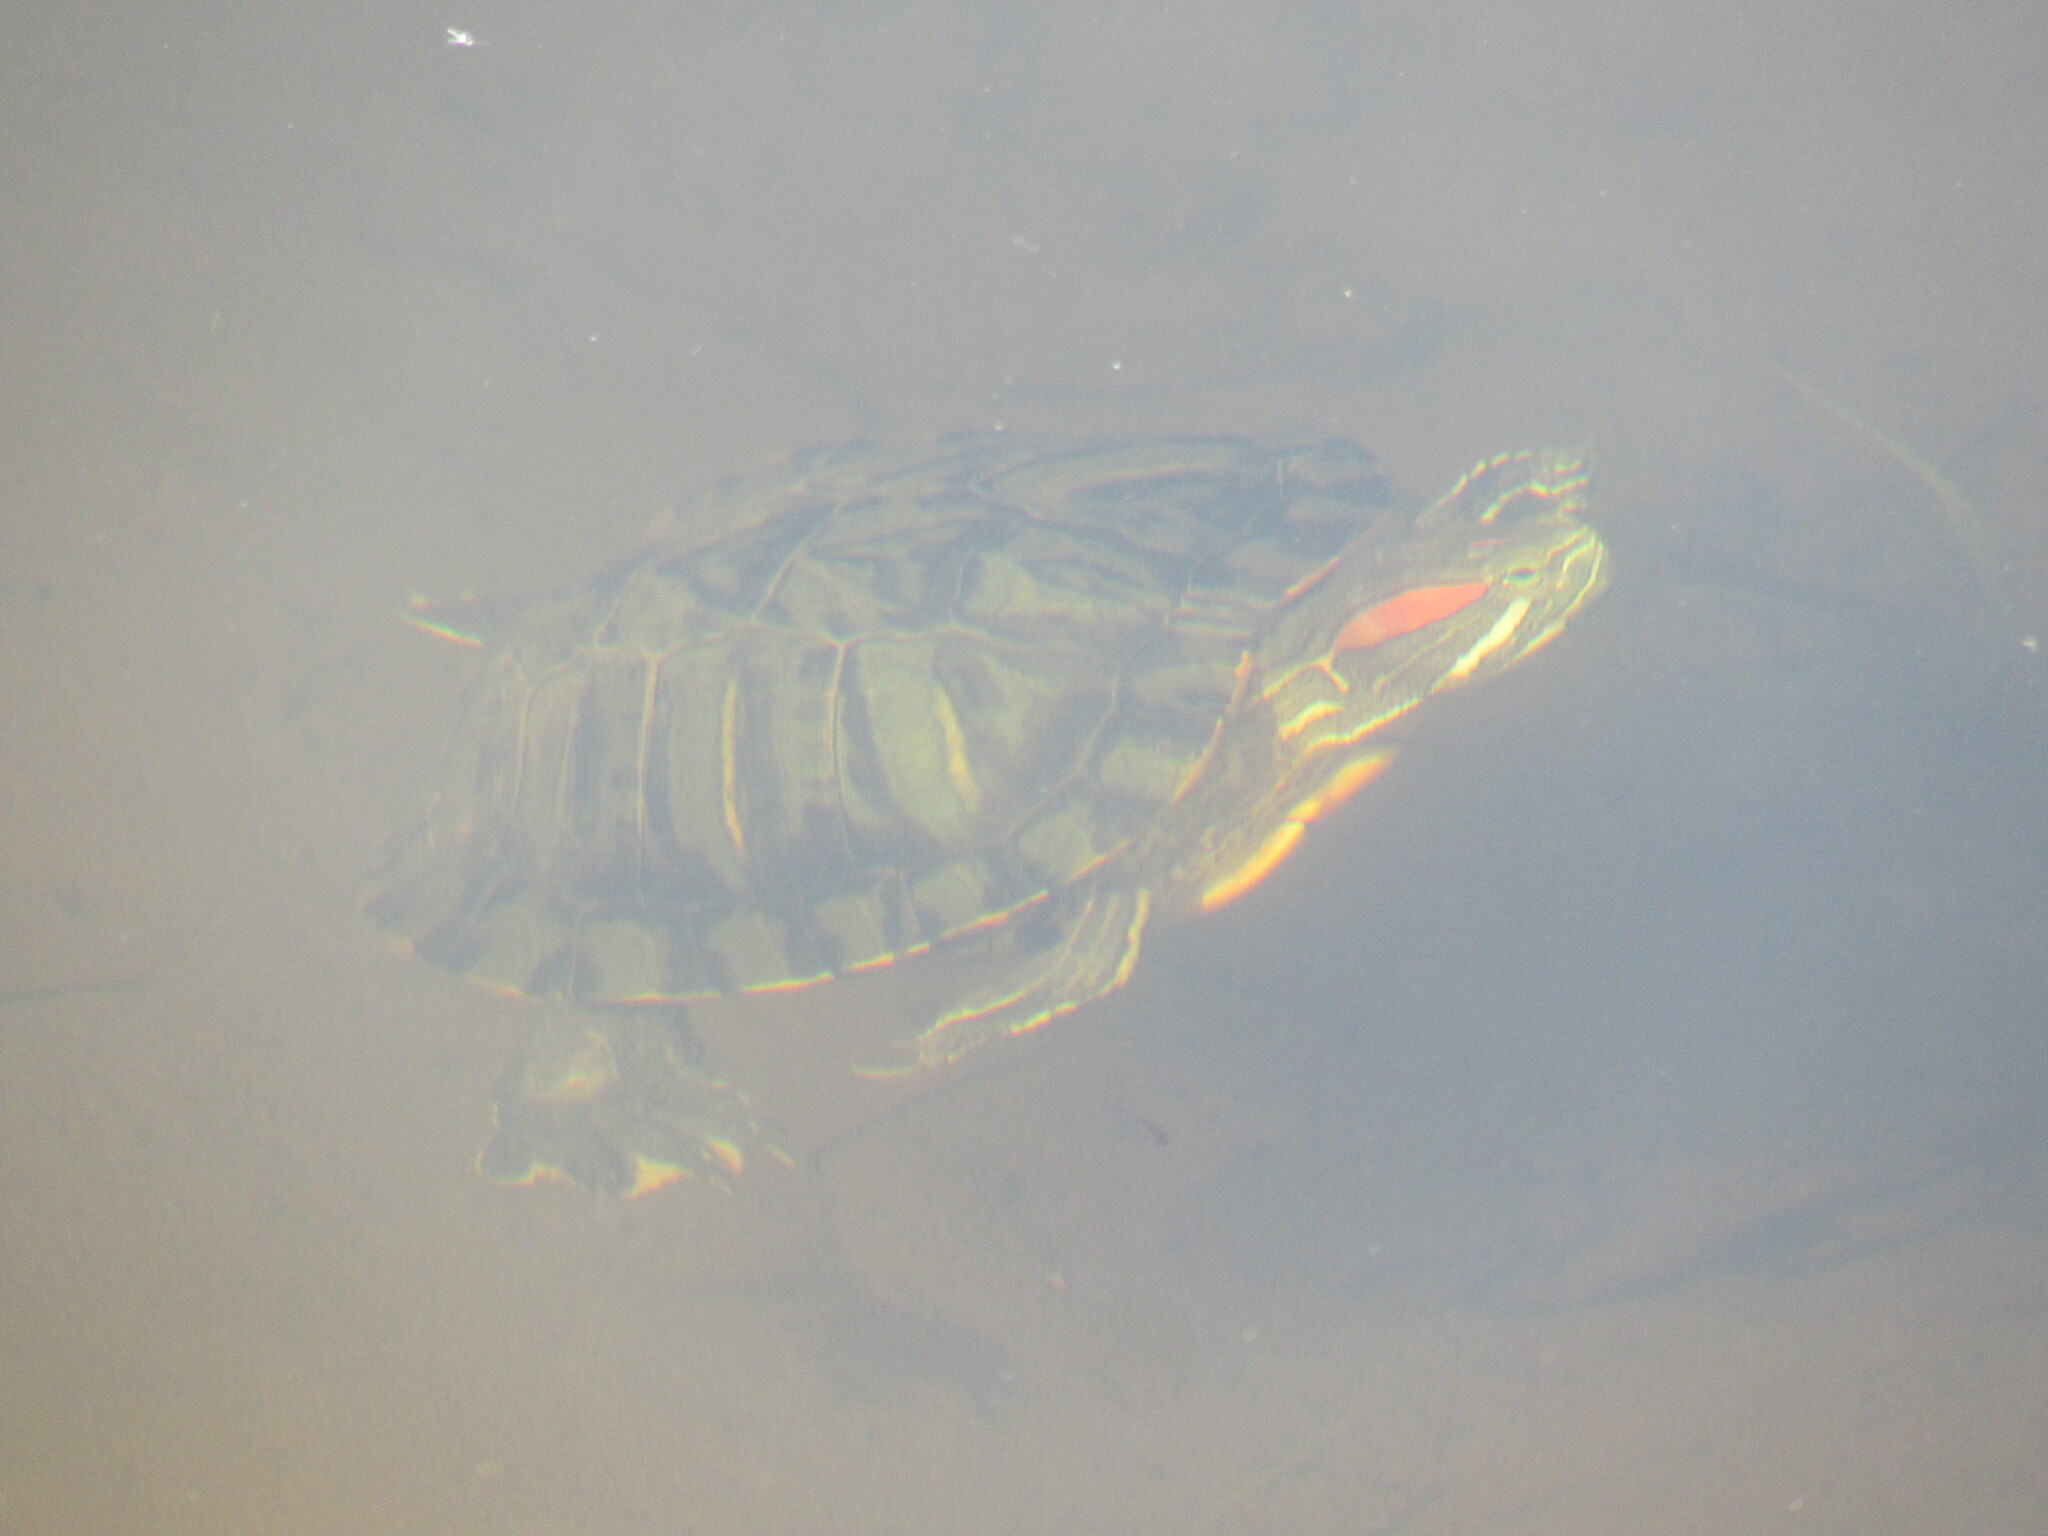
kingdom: Animalia
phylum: Chordata
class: Testudines
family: Emydidae
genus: Trachemys
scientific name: Trachemys scripta
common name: Slider
